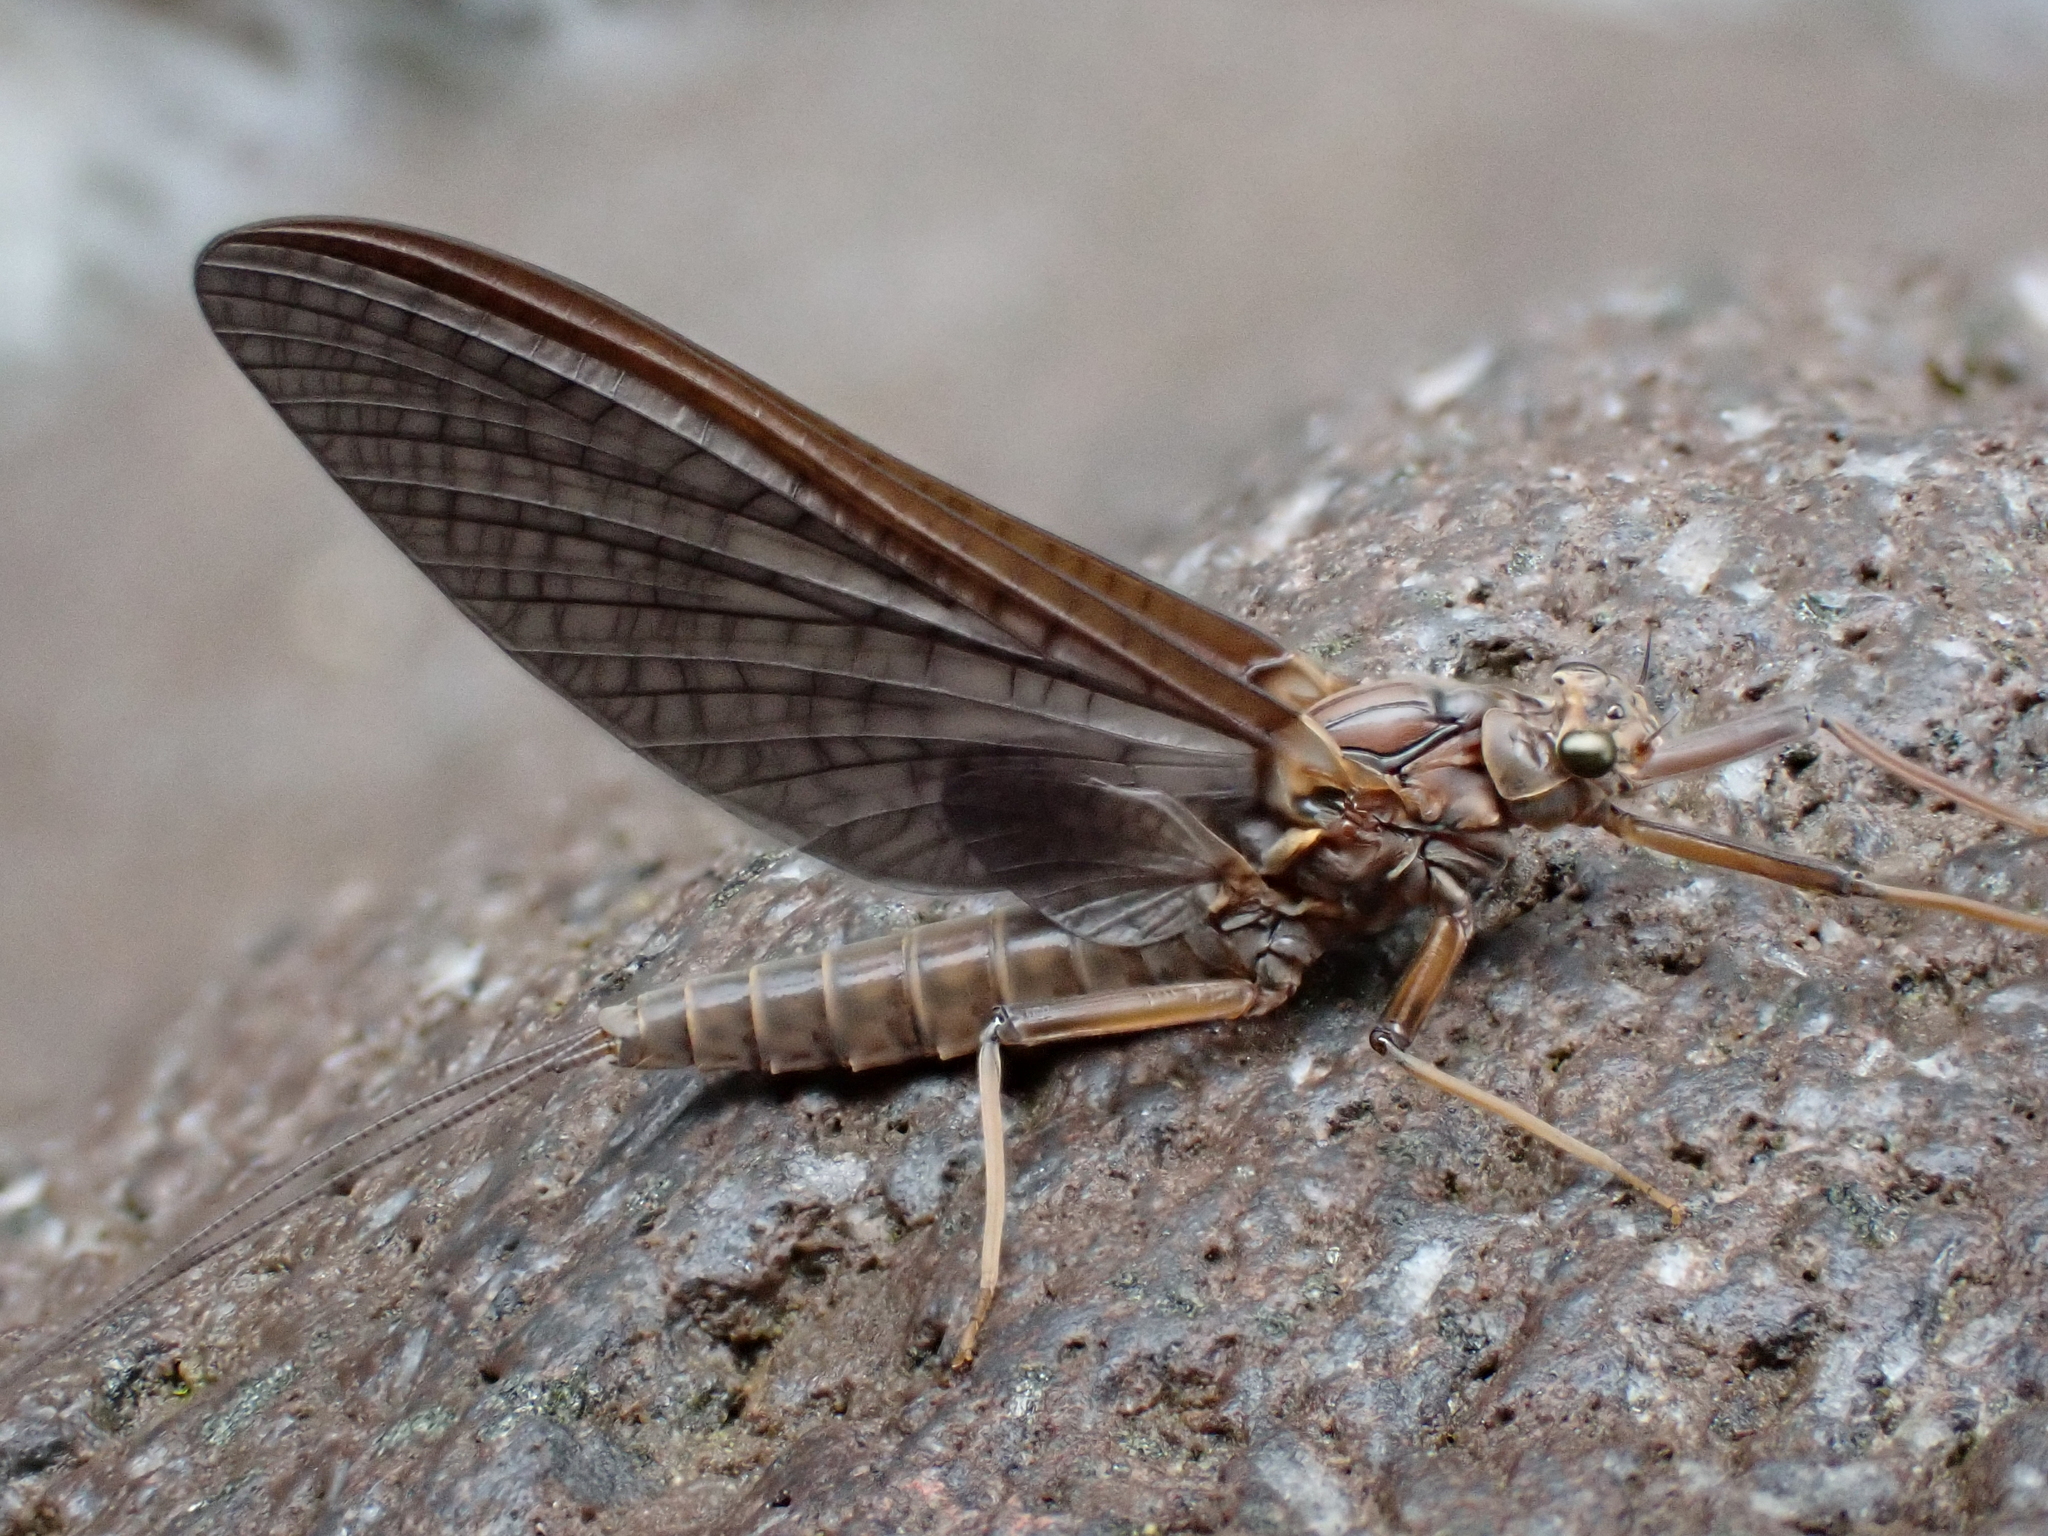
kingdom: Animalia
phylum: Arthropoda
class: Insecta
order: Ephemeroptera
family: Leptophlebiidae
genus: Deleatidium
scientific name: Deleatidium magnum
